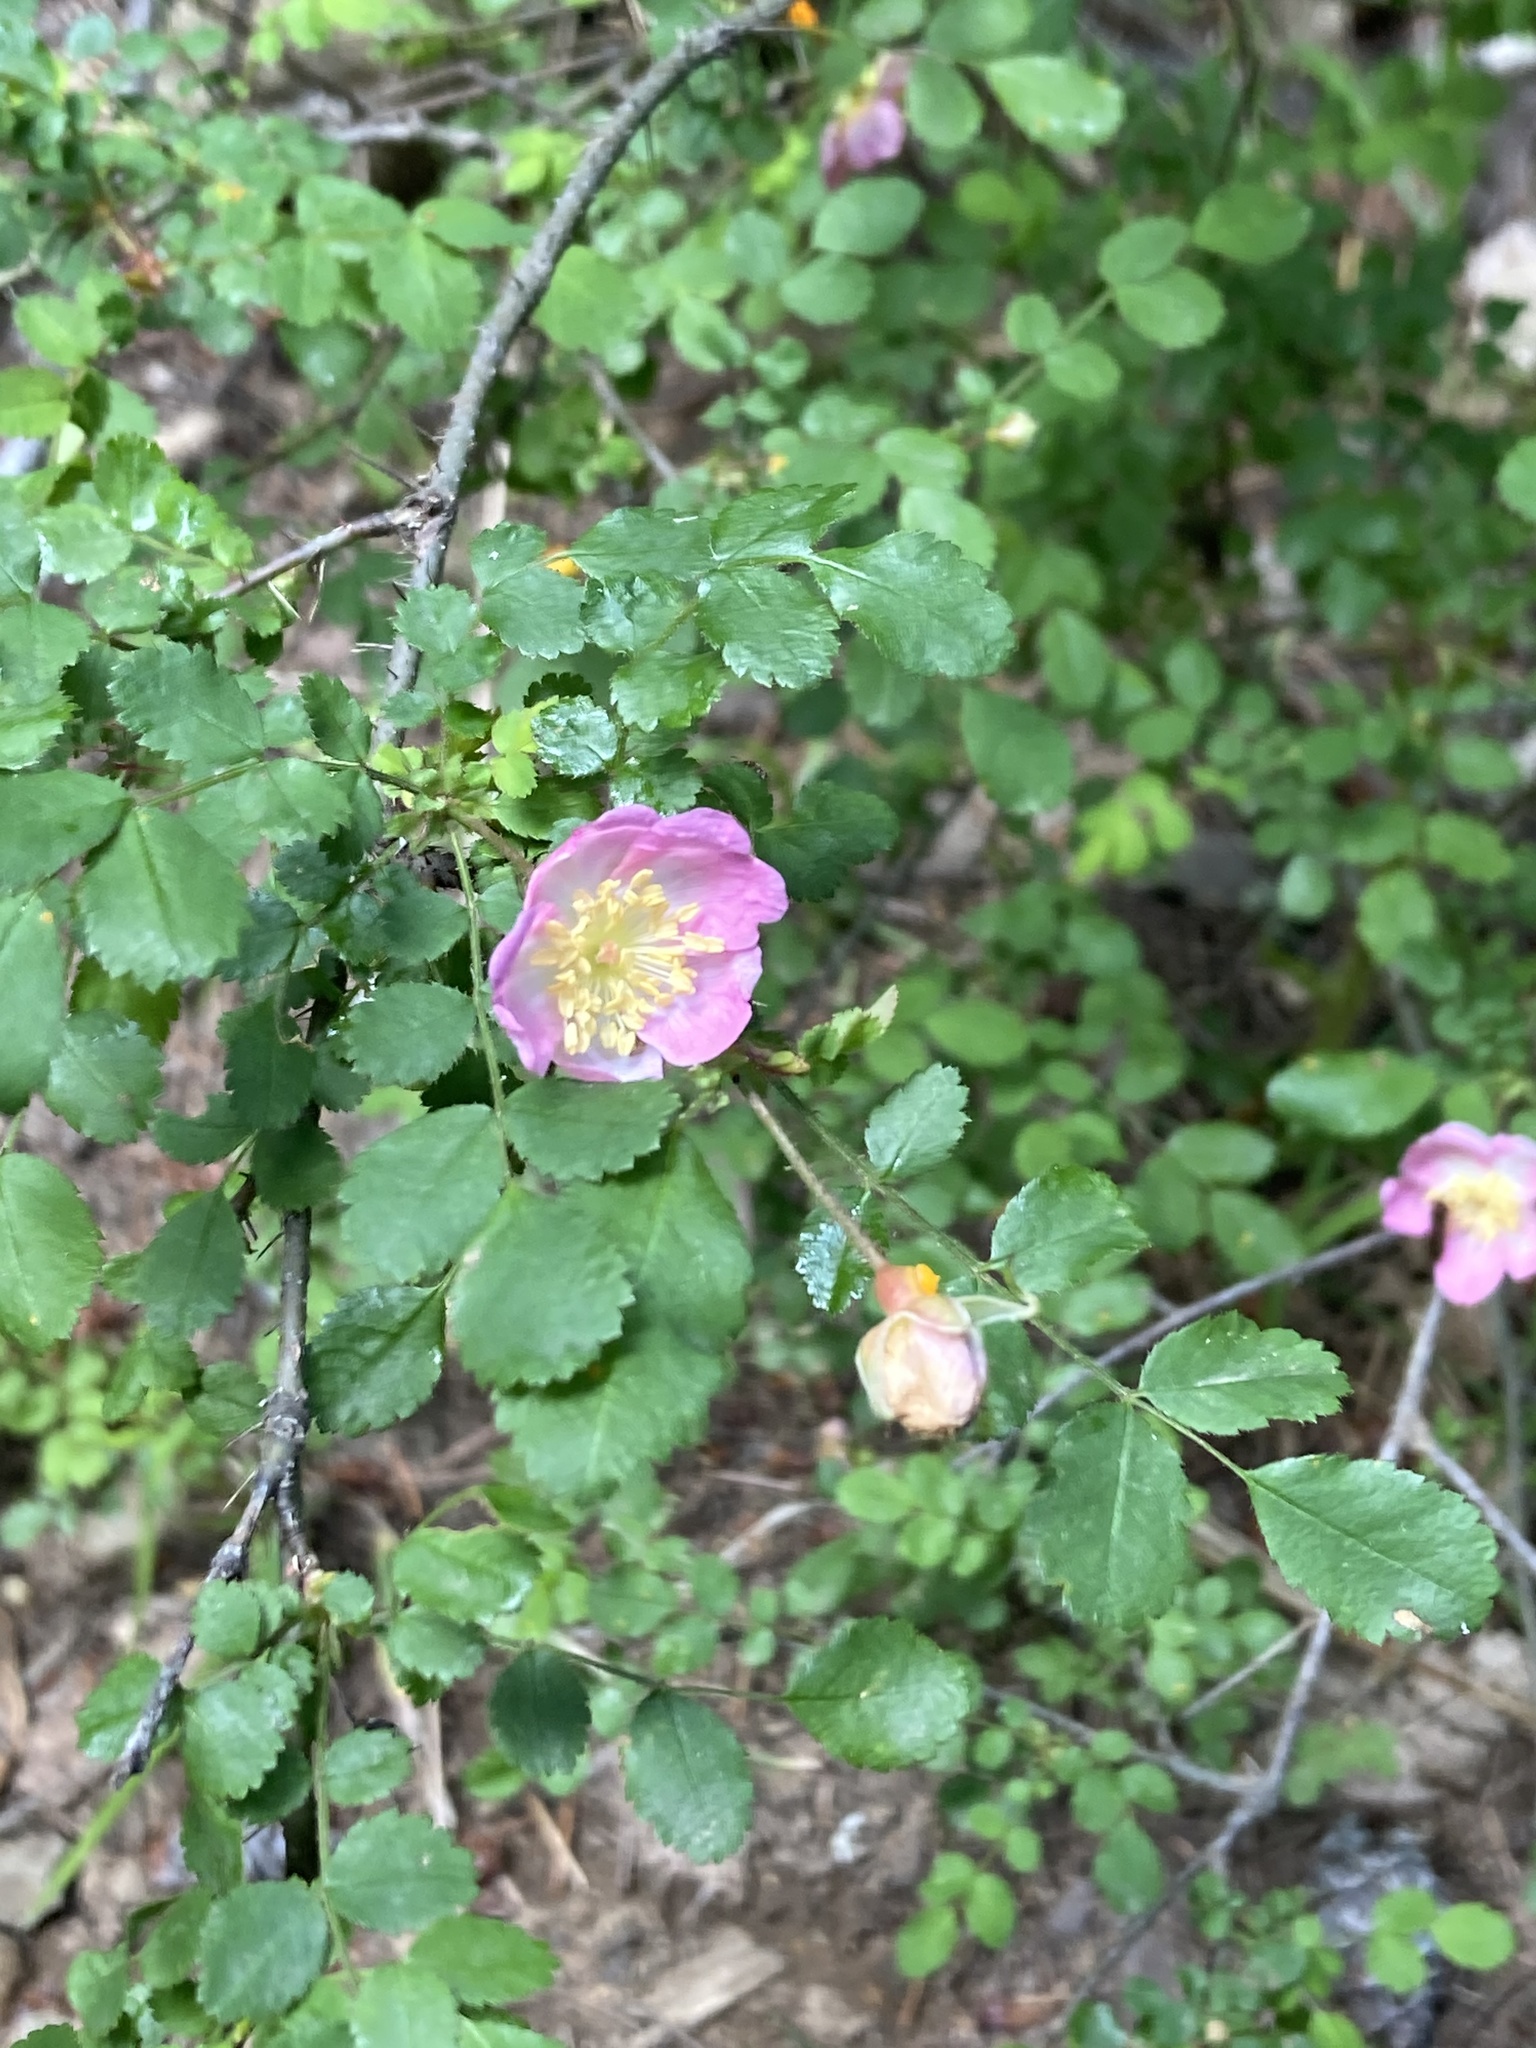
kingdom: Plantae
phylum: Tracheophyta
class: Magnoliopsida
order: Rosales
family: Rosaceae
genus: Rosa
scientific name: Rosa gymnocarpa
